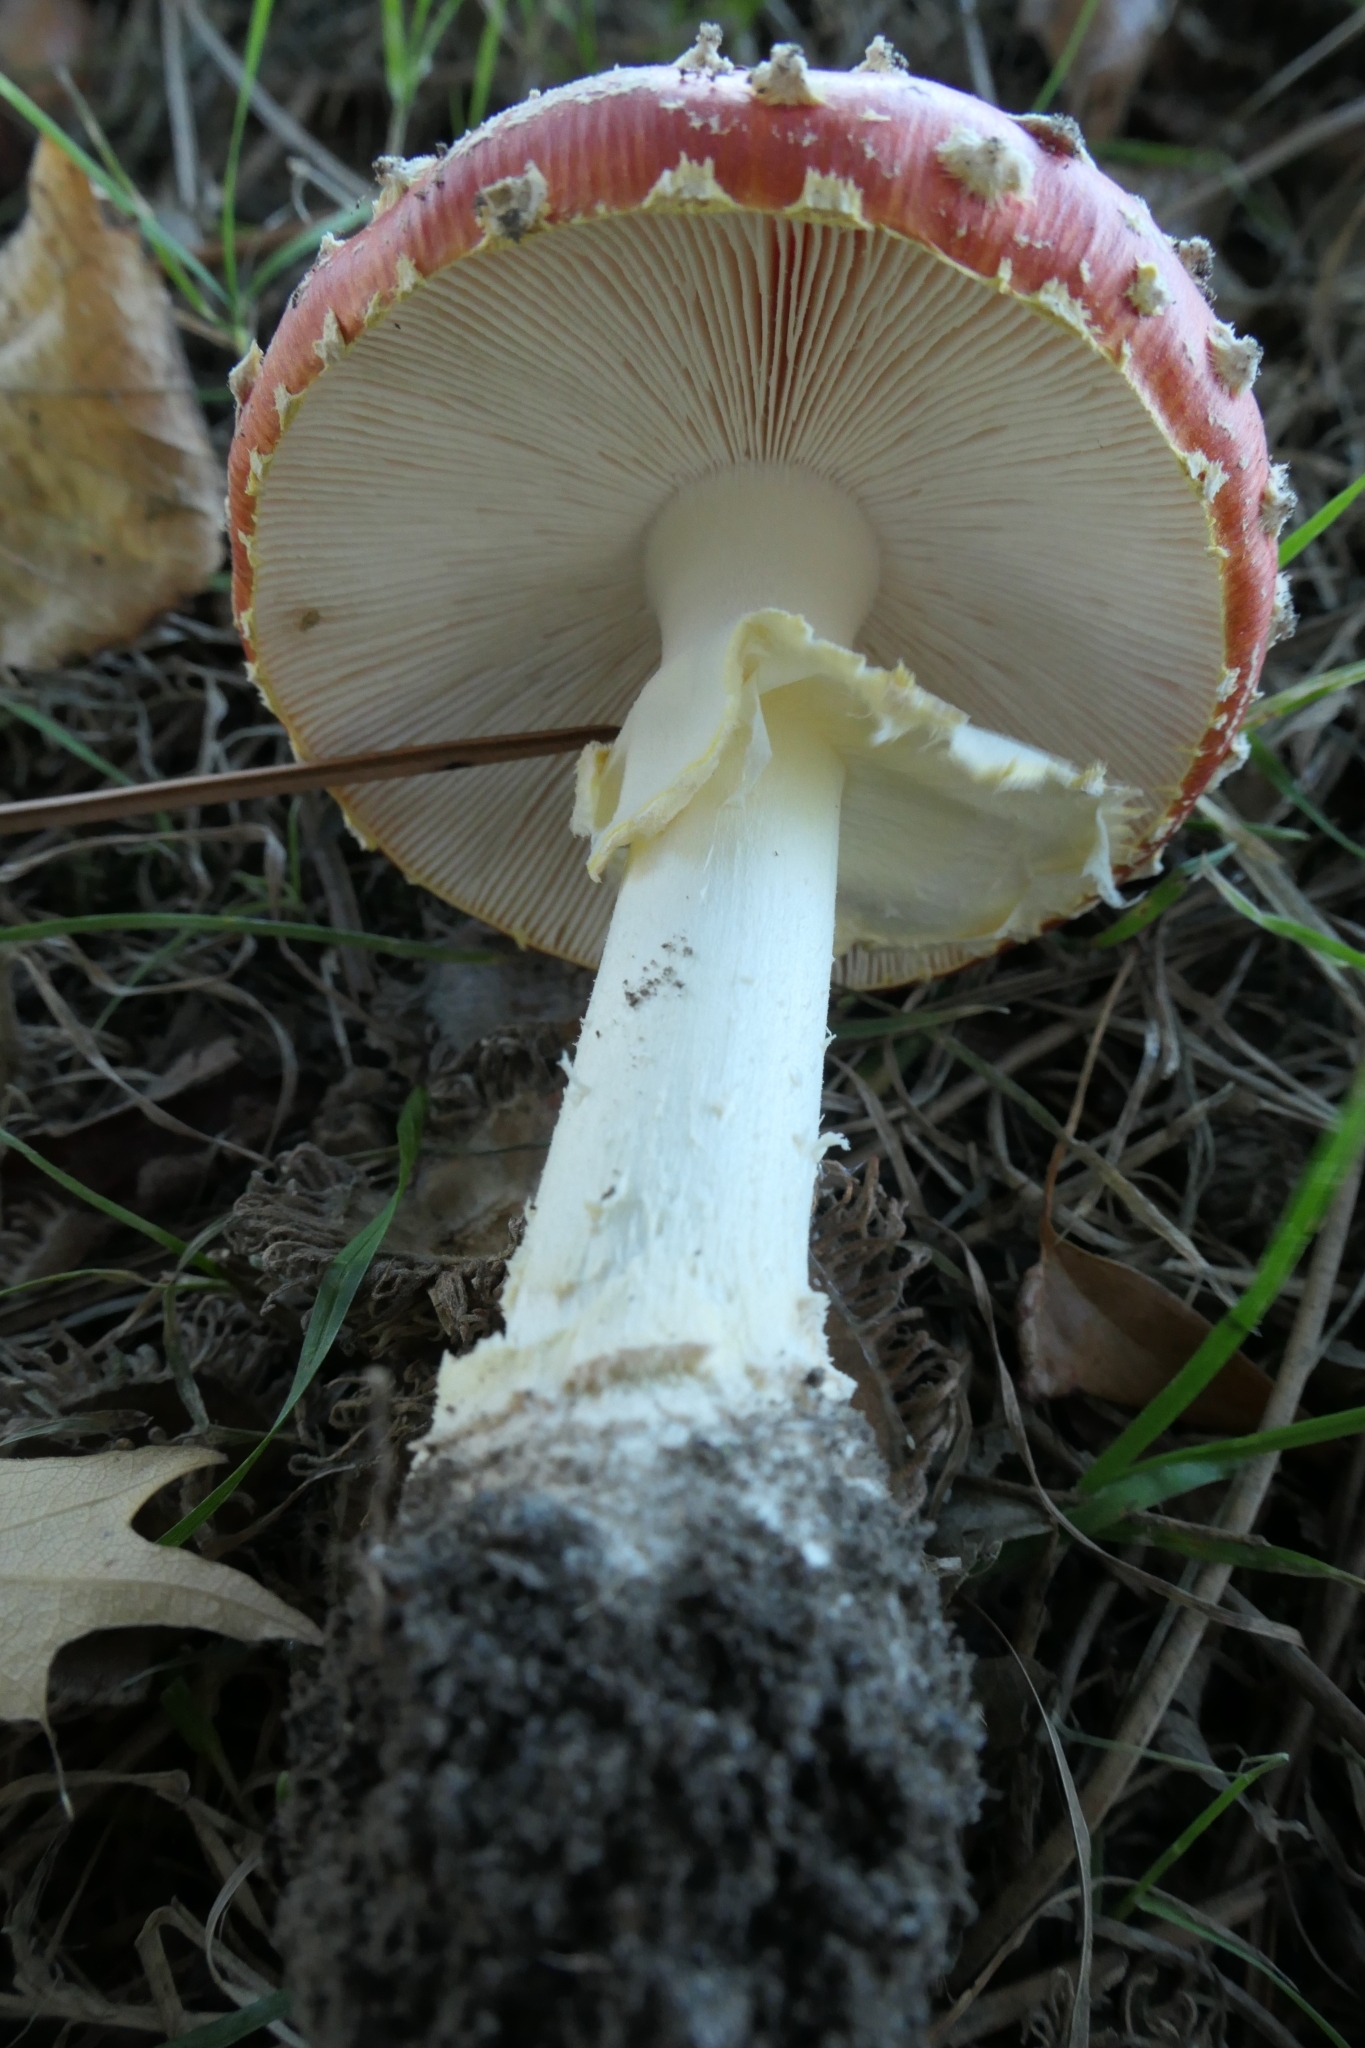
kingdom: Fungi
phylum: Basidiomycota
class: Agaricomycetes
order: Agaricales
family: Amanitaceae
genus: Amanita
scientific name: Amanita muscaria
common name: Fly agaric
